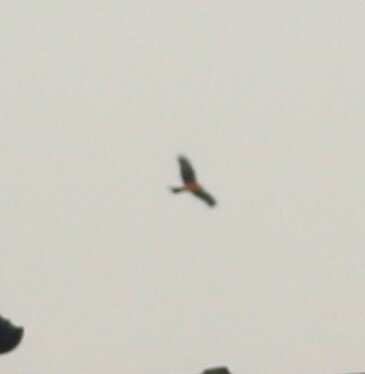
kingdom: Animalia
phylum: Chordata
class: Aves
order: Accipitriformes
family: Accipitridae
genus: Milvus
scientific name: Milvus milvus
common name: Red kite
